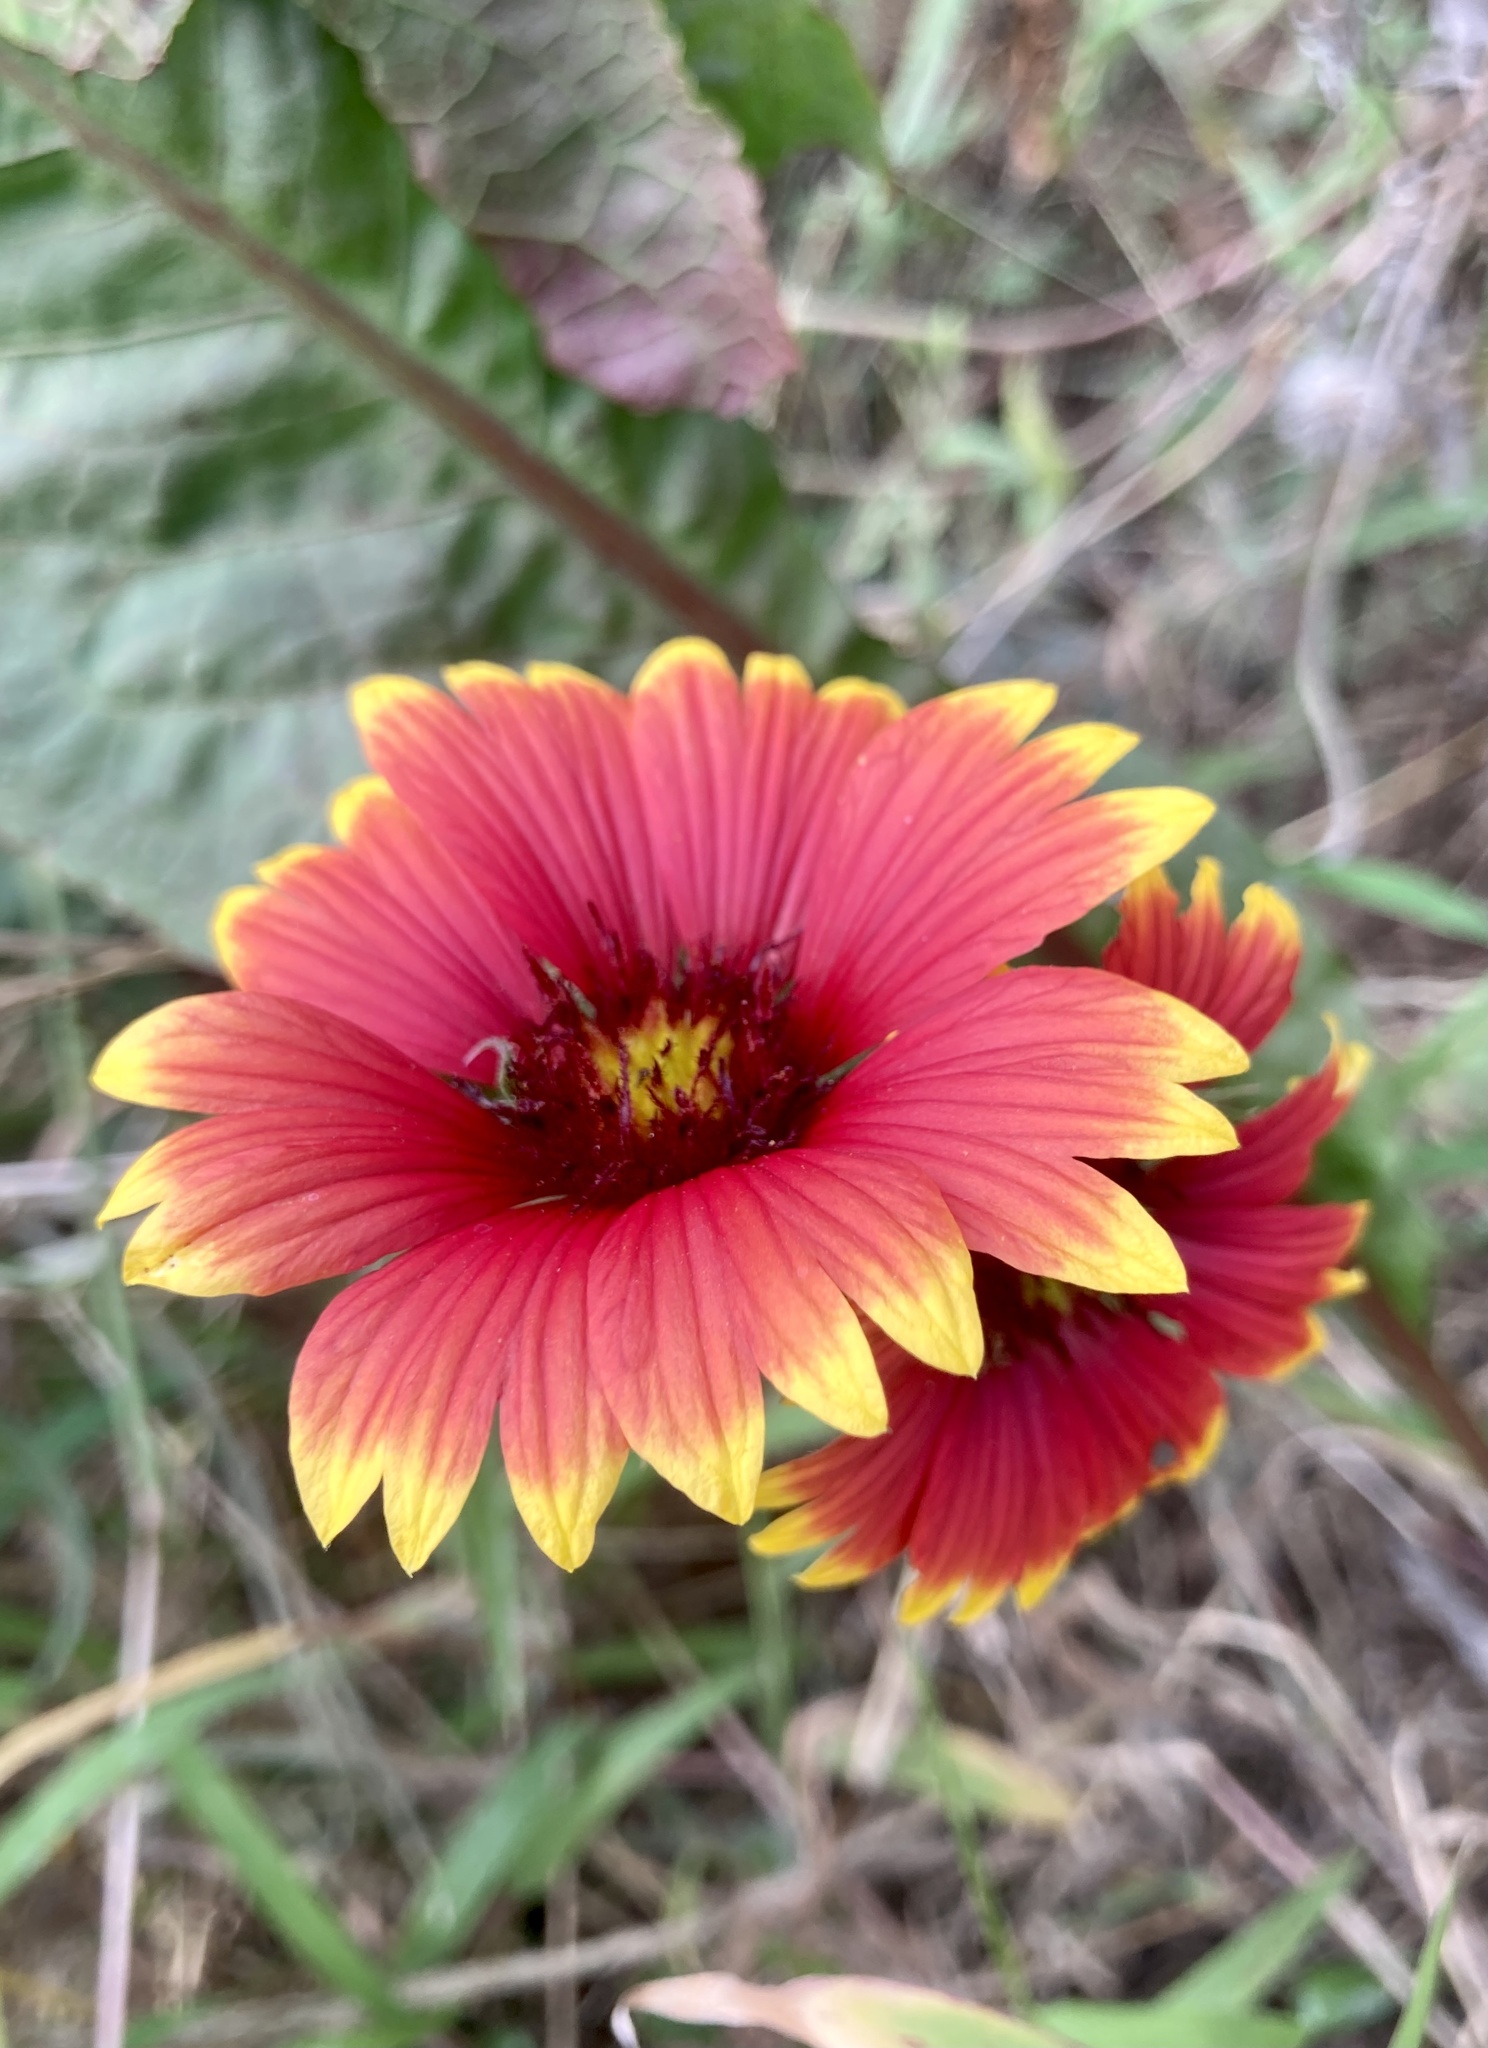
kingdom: Plantae
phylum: Tracheophyta
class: Magnoliopsida
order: Asterales
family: Asteraceae
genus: Gaillardia
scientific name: Gaillardia pulchella
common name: Firewheel
